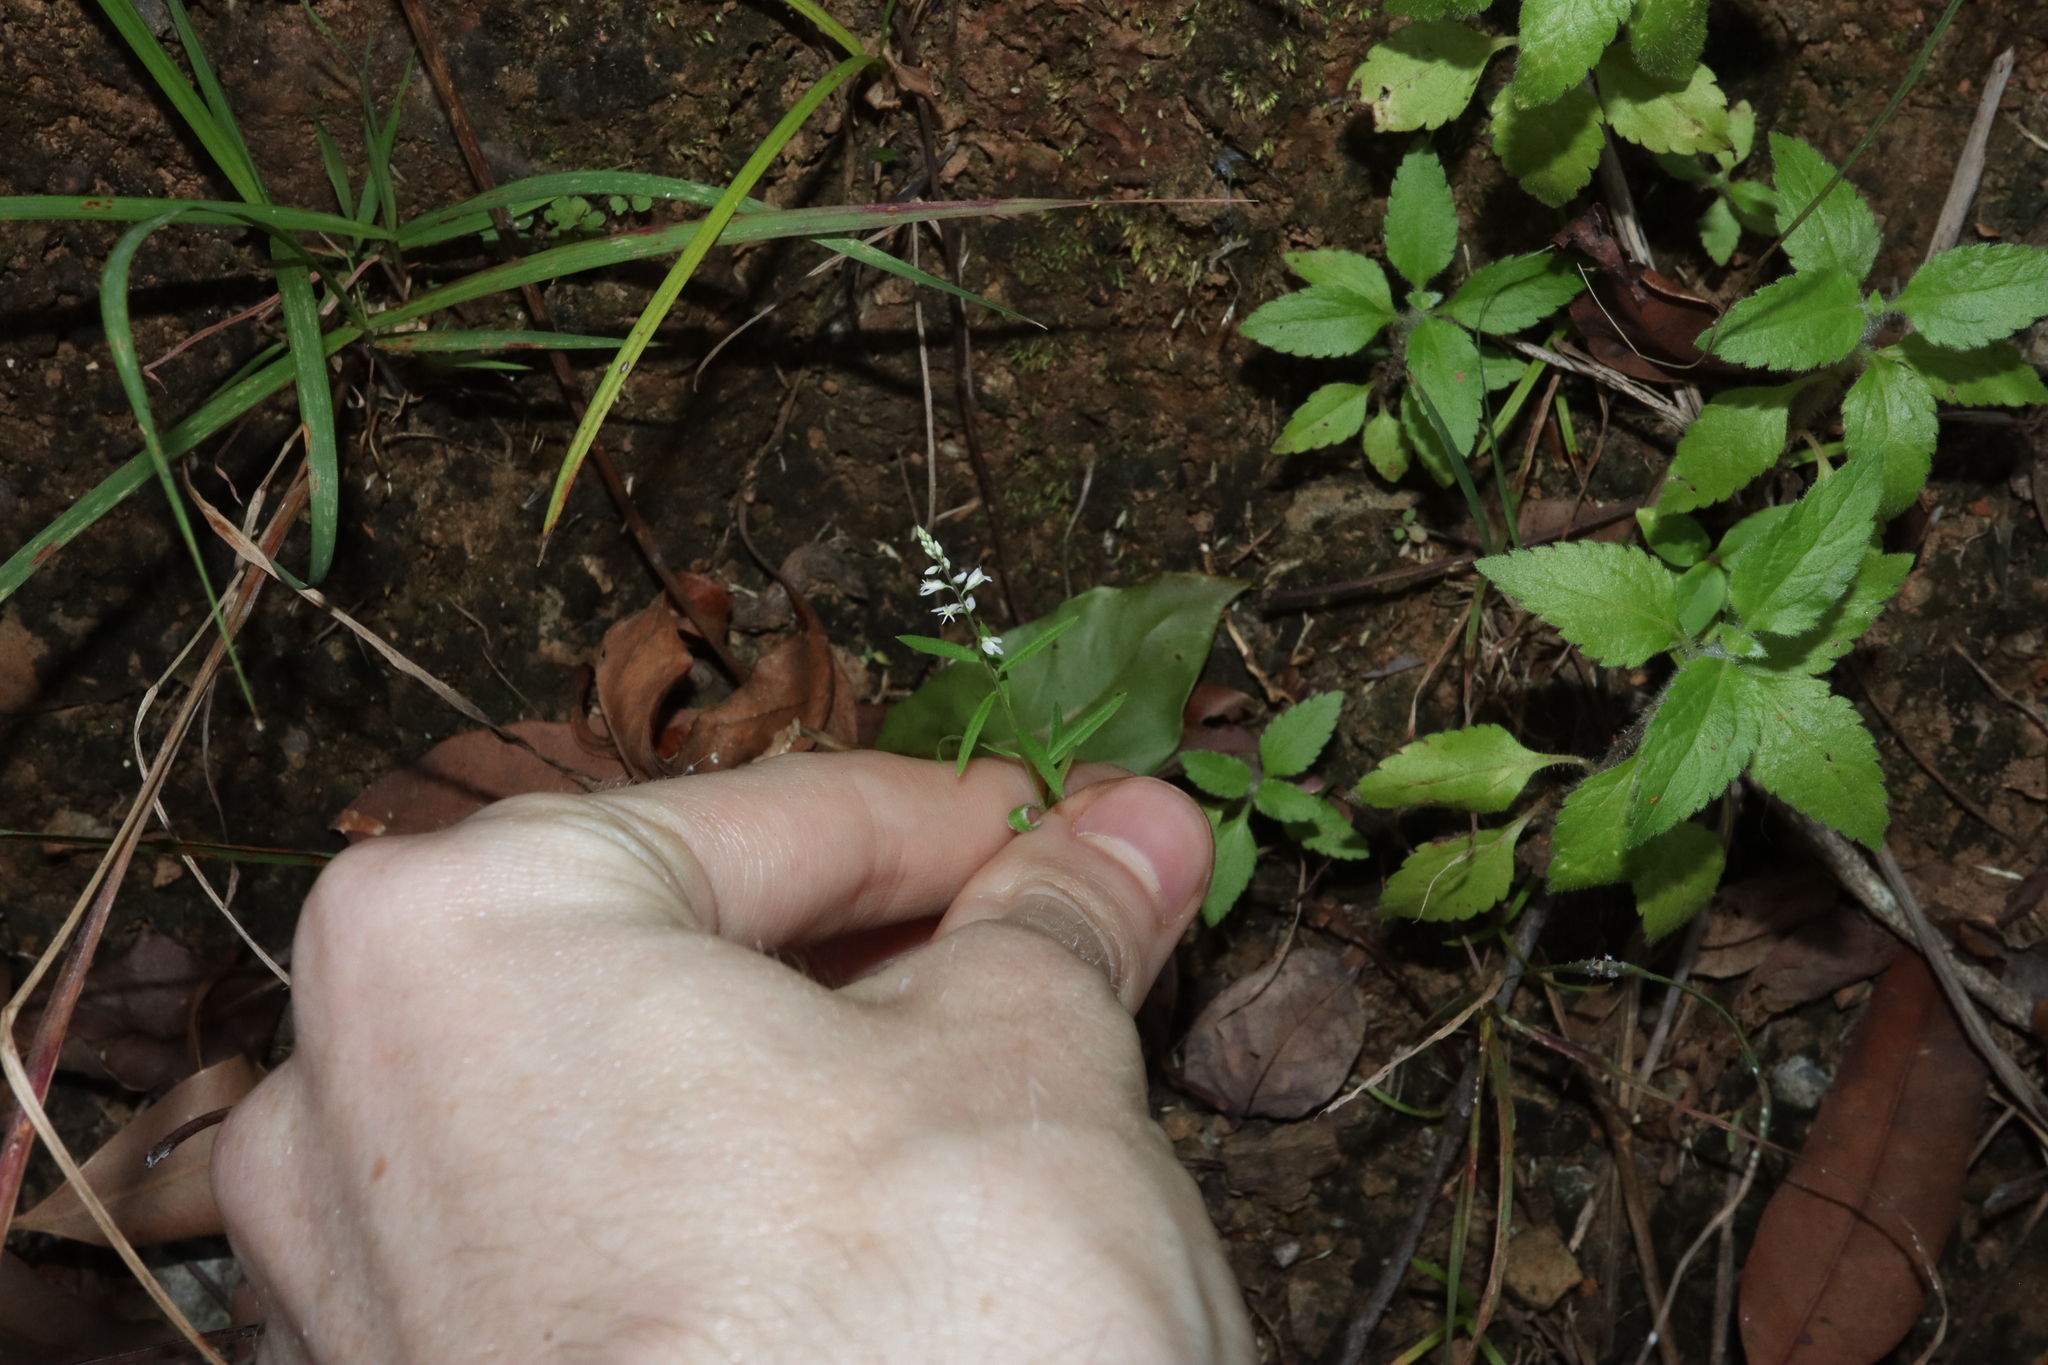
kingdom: Plantae
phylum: Tracheophyta
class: Magnoliopsida
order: Fabales
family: Polygalaceae
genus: Polygala
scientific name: Polygala paniculata
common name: Orosne
